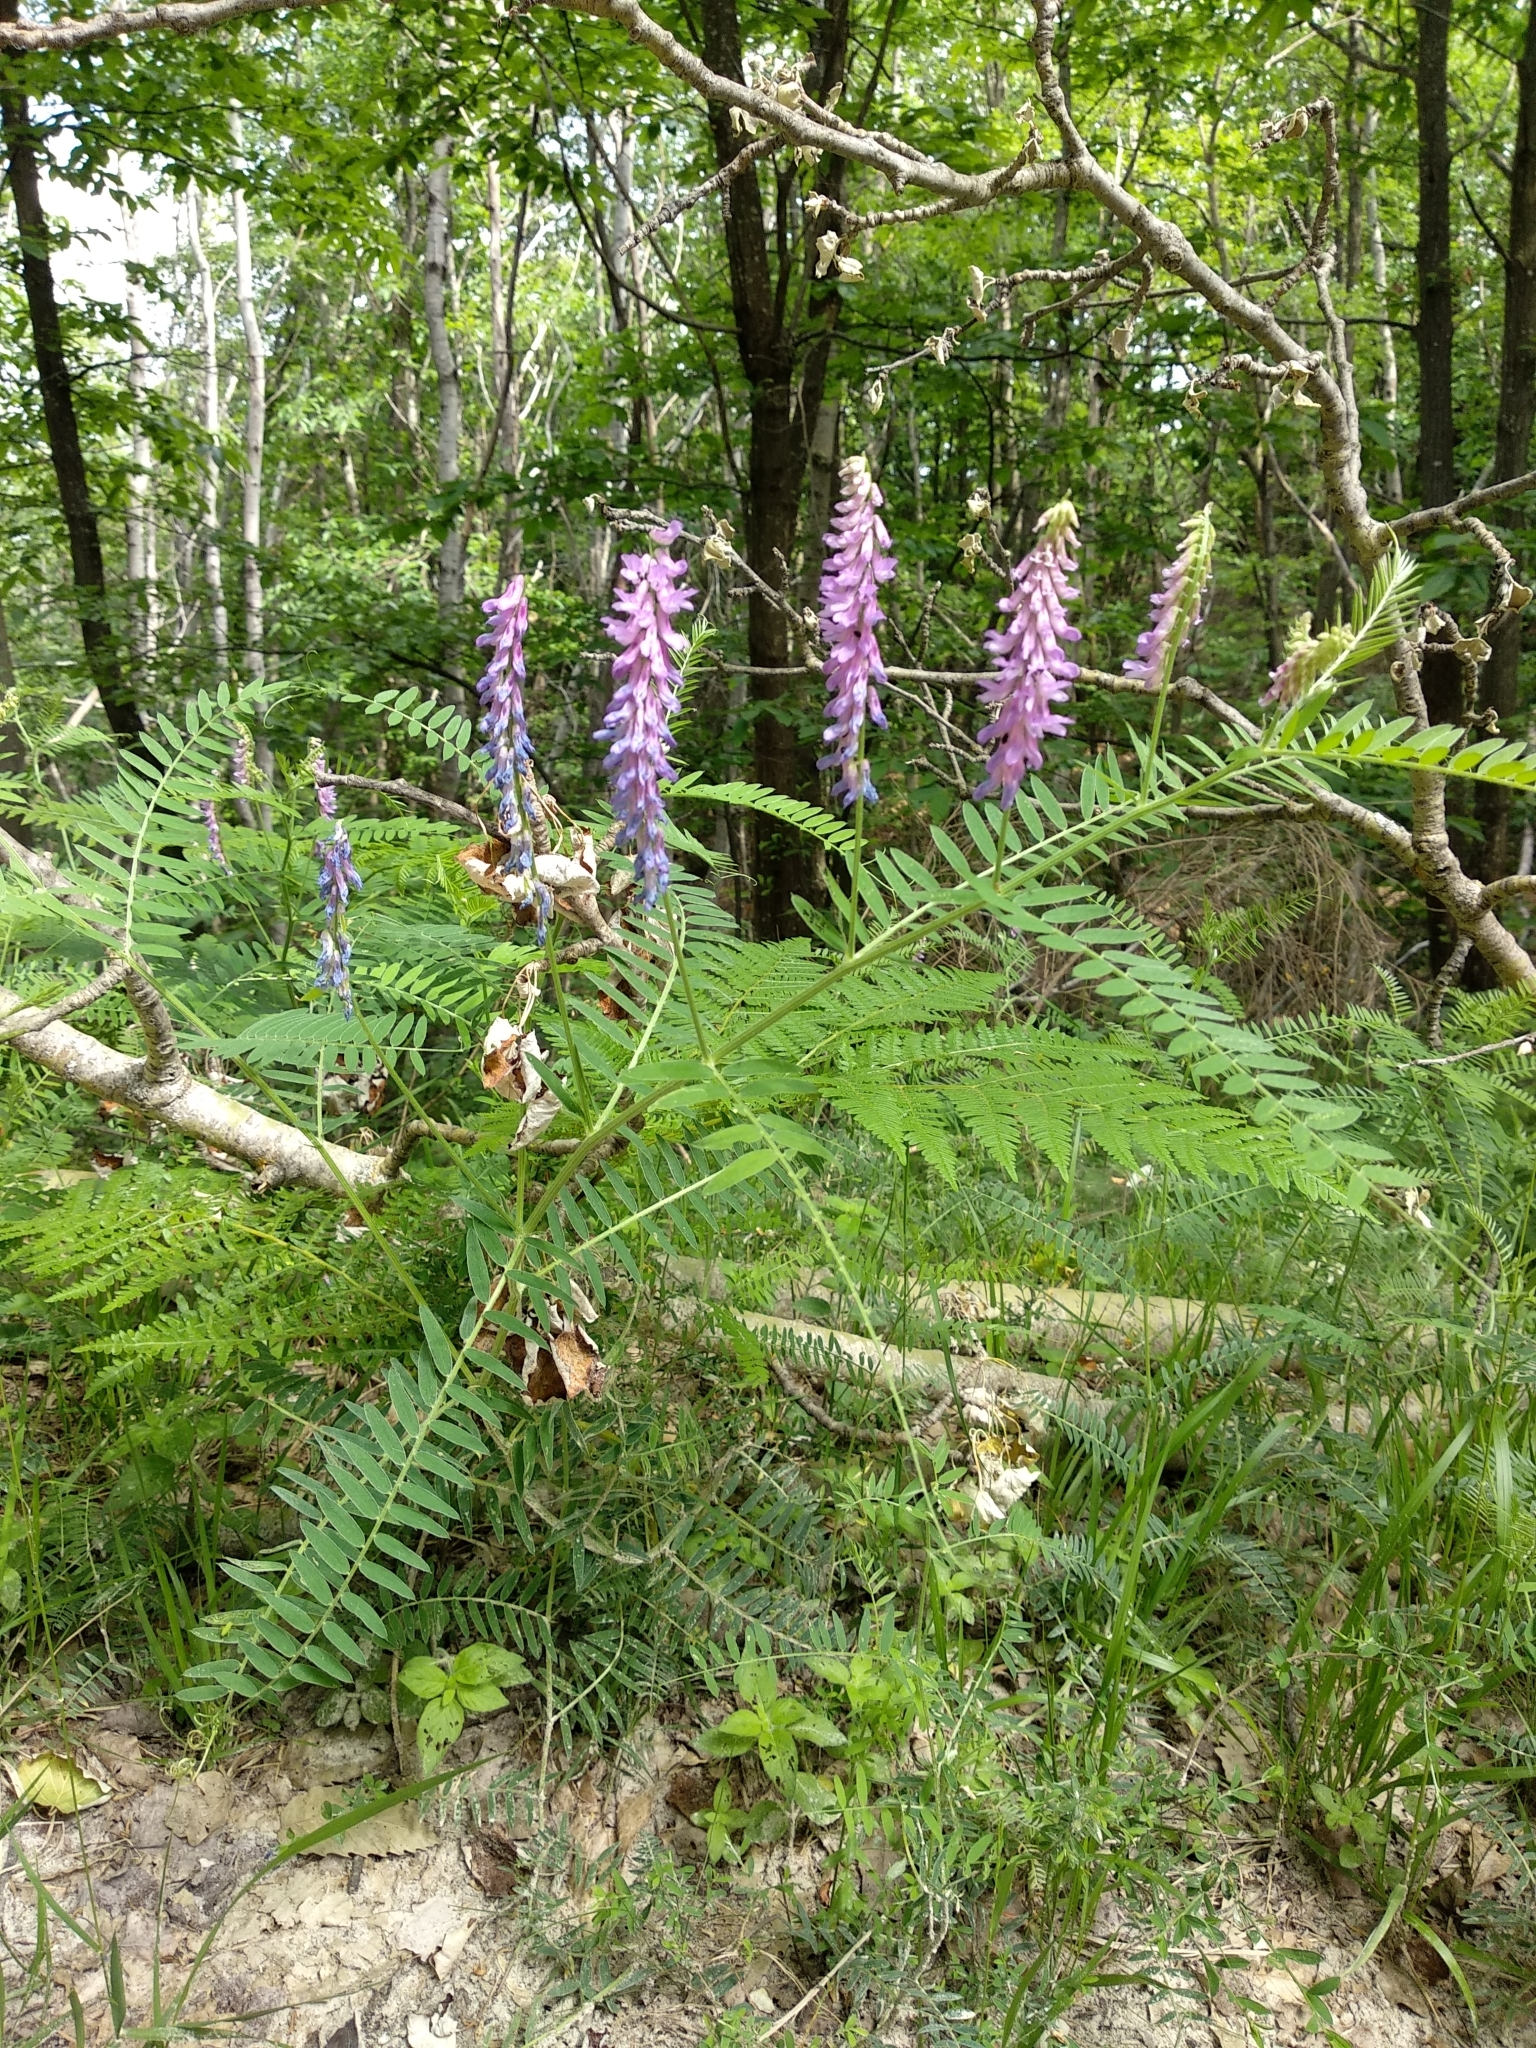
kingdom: Plantae
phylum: Tracheophyta
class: Magnoliopsida
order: Fabales
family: Fabaceae
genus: Vicia
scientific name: Vicia cracca
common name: Bird vetch
